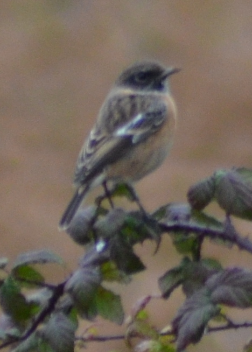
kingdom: Animalia
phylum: Chordata
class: Aves
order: Passeriformes
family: Muscicapidae
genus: Saxicola
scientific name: Saxicola rubicola
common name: European stonechat
